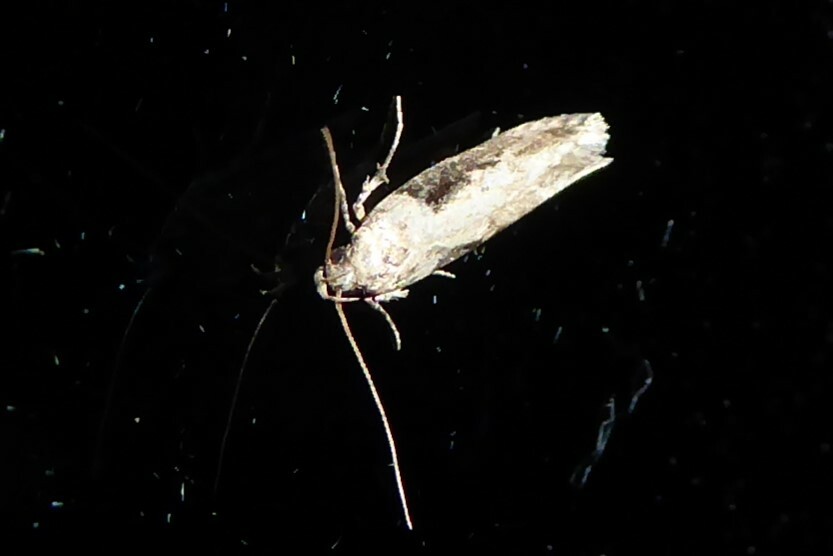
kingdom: Animalia
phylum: Arthropoda
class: Insecta
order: Lepidoptera
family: Gelechiidae
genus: Symmetrischema
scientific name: Symmetrischema tangolias
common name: Moth
